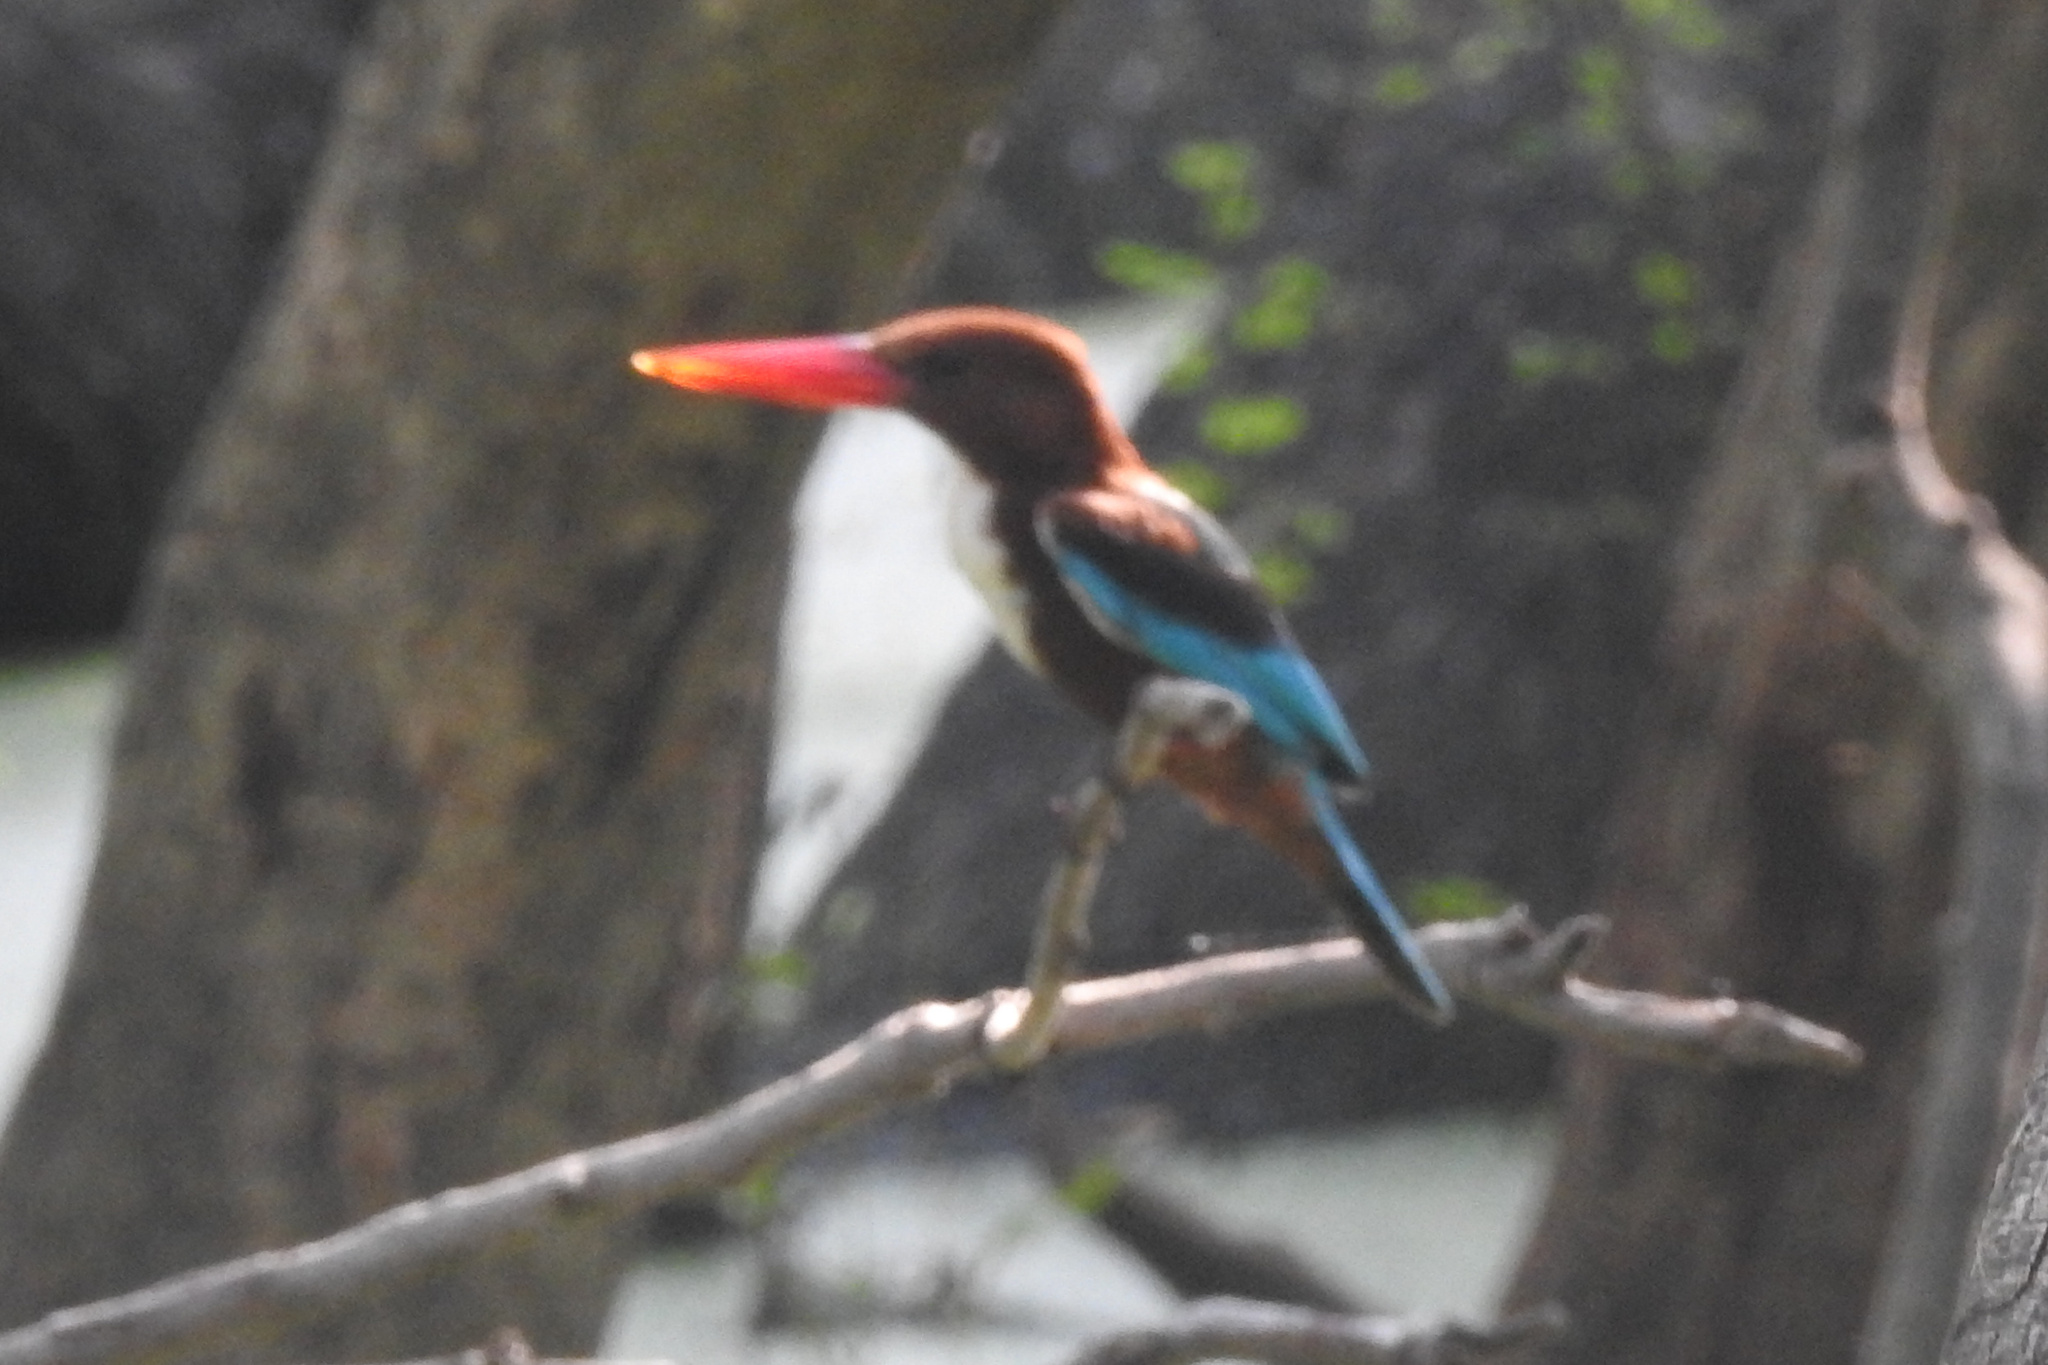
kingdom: Animalia
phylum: Chordata
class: Aves
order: Coraciiformes
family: Alcedinidae
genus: Halcyon
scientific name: Halcyon smyrnensis
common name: White-throated kingfisher
